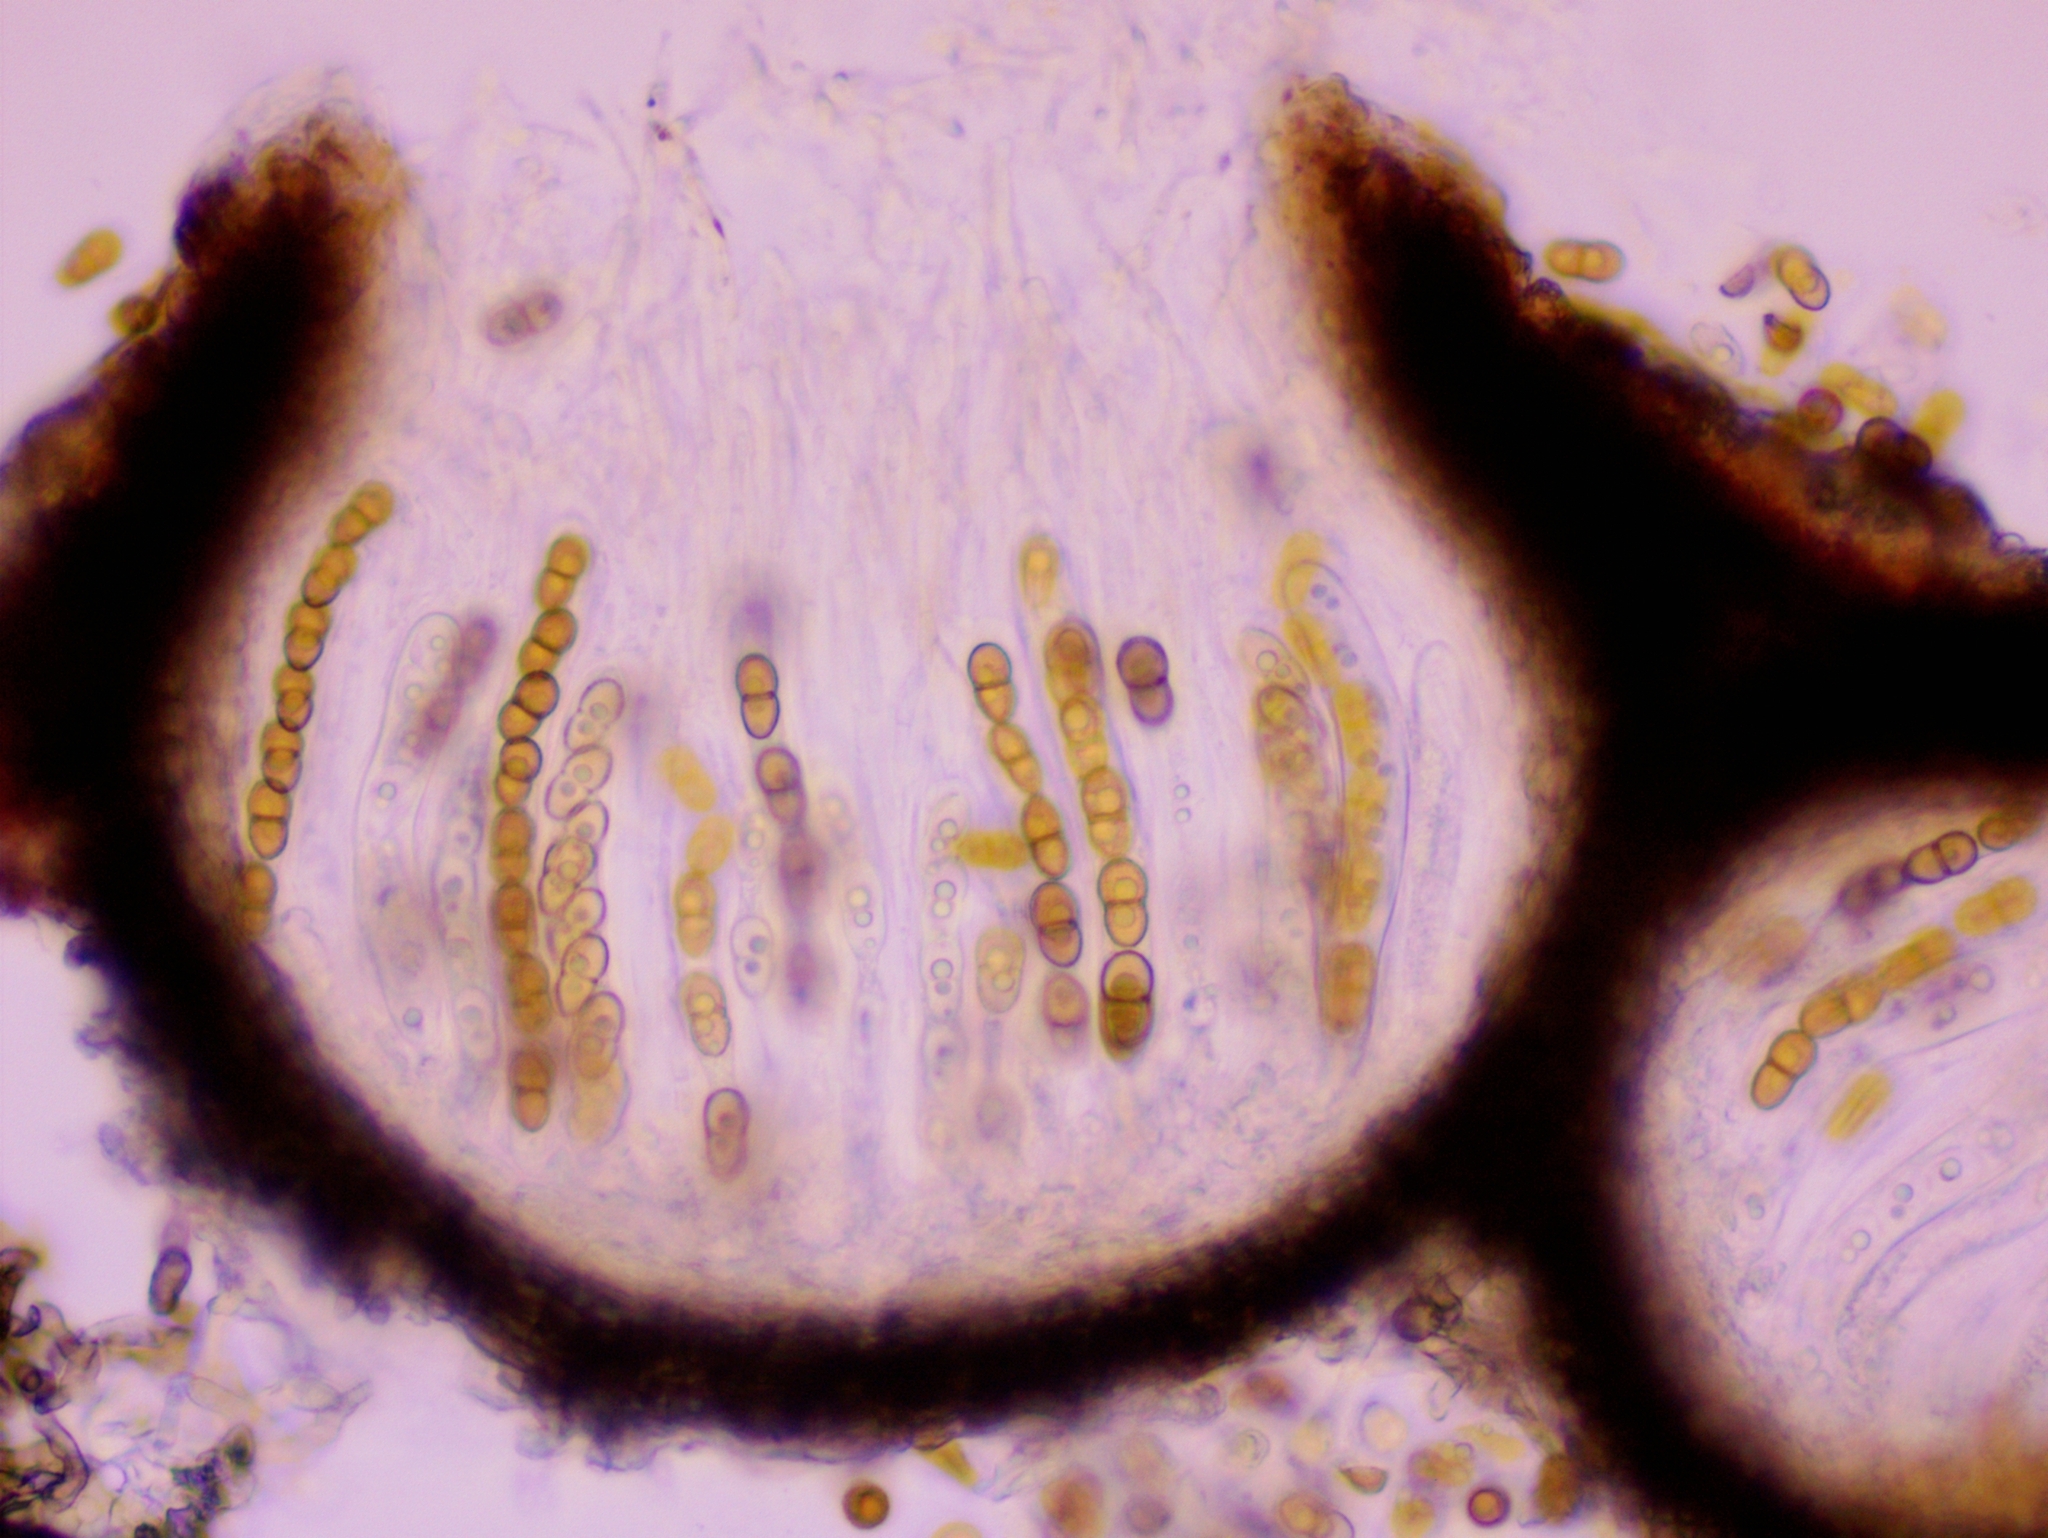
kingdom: Fungi
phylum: Ascomycota
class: Dothideomycetes
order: Pleosporales
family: Phaeosphaeriaceae
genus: Didymocyrtis
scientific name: Didymocyrtis slaptonensis
